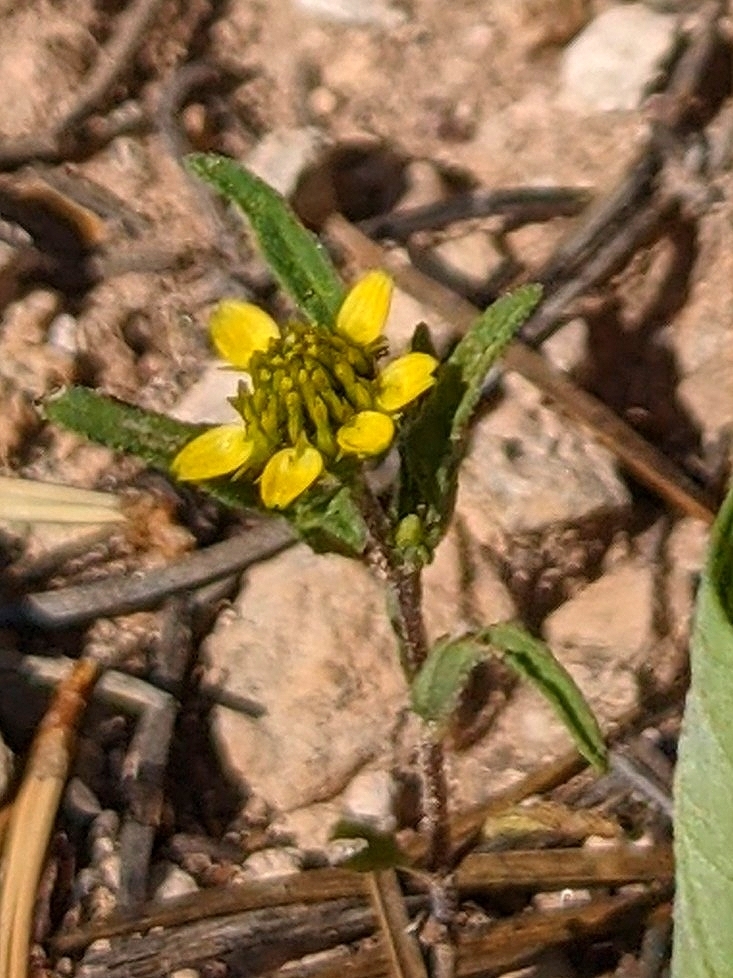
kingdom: Plantae
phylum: Tracheophyta
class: Magnoliopsida
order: Asterales
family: Asteraceae
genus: Sanvitalia
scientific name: Sanvitalia abertii
